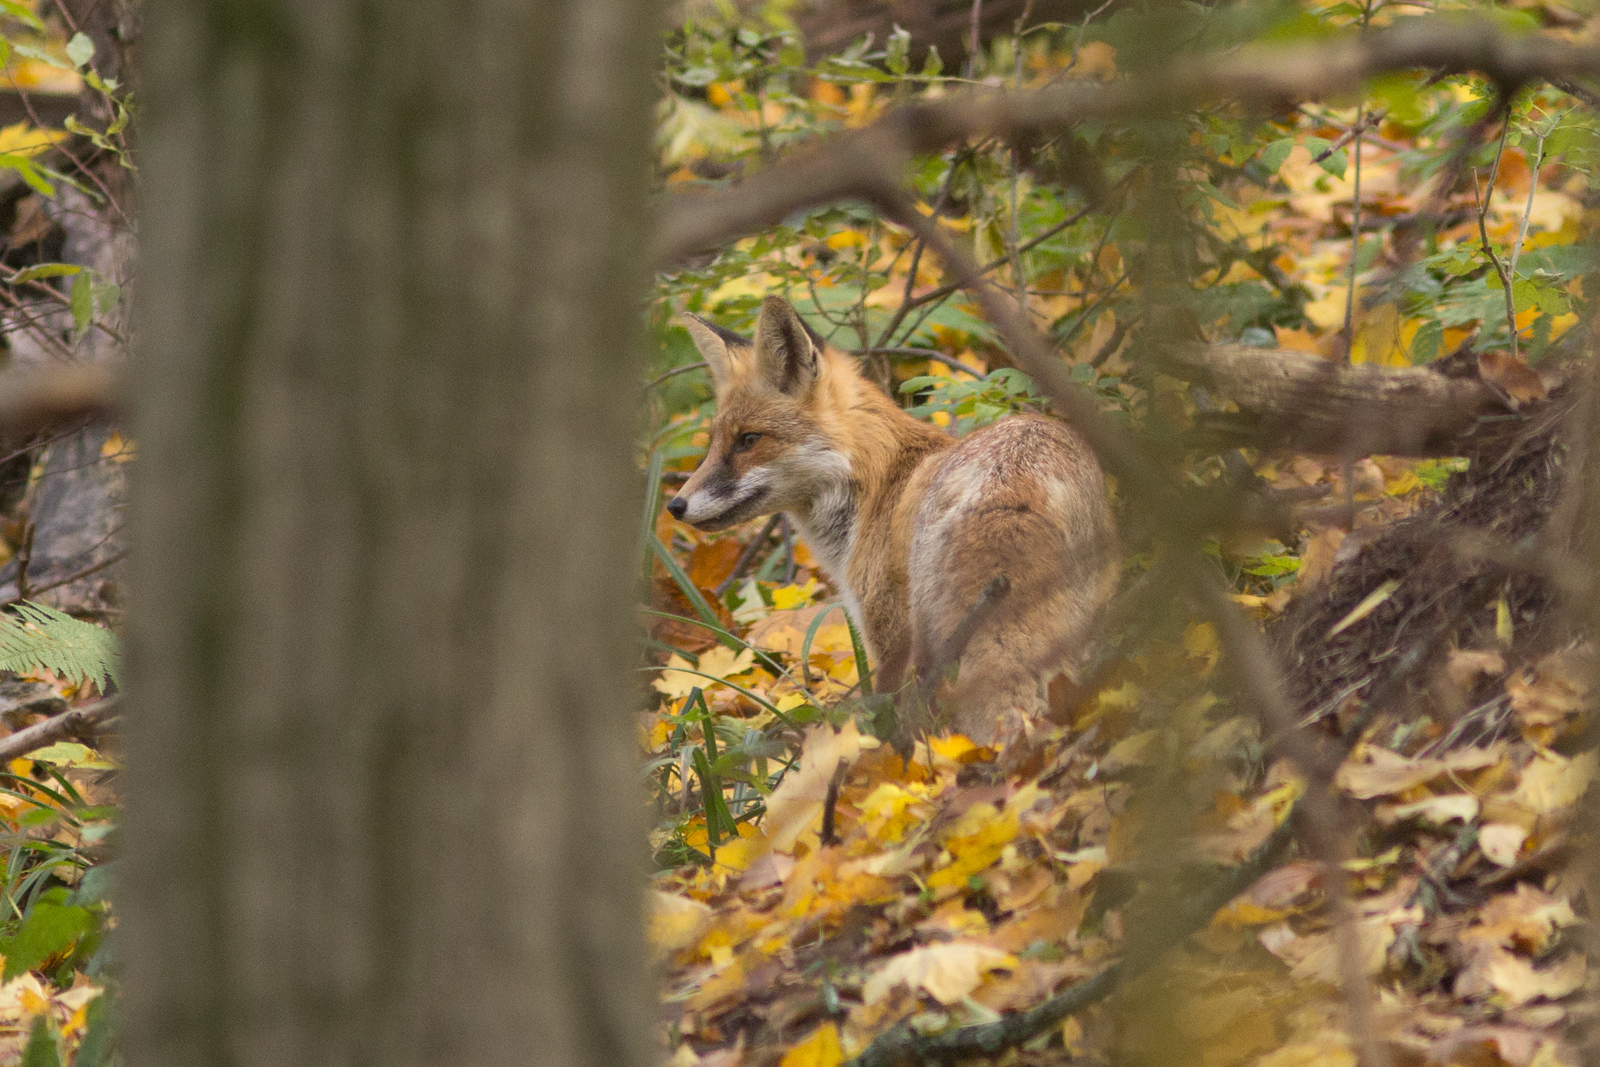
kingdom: Animalia
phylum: Chordata
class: Mammalia
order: Carnivora
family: Canidae
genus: Vulpes
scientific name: Vulpes vulpes
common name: Red fox
